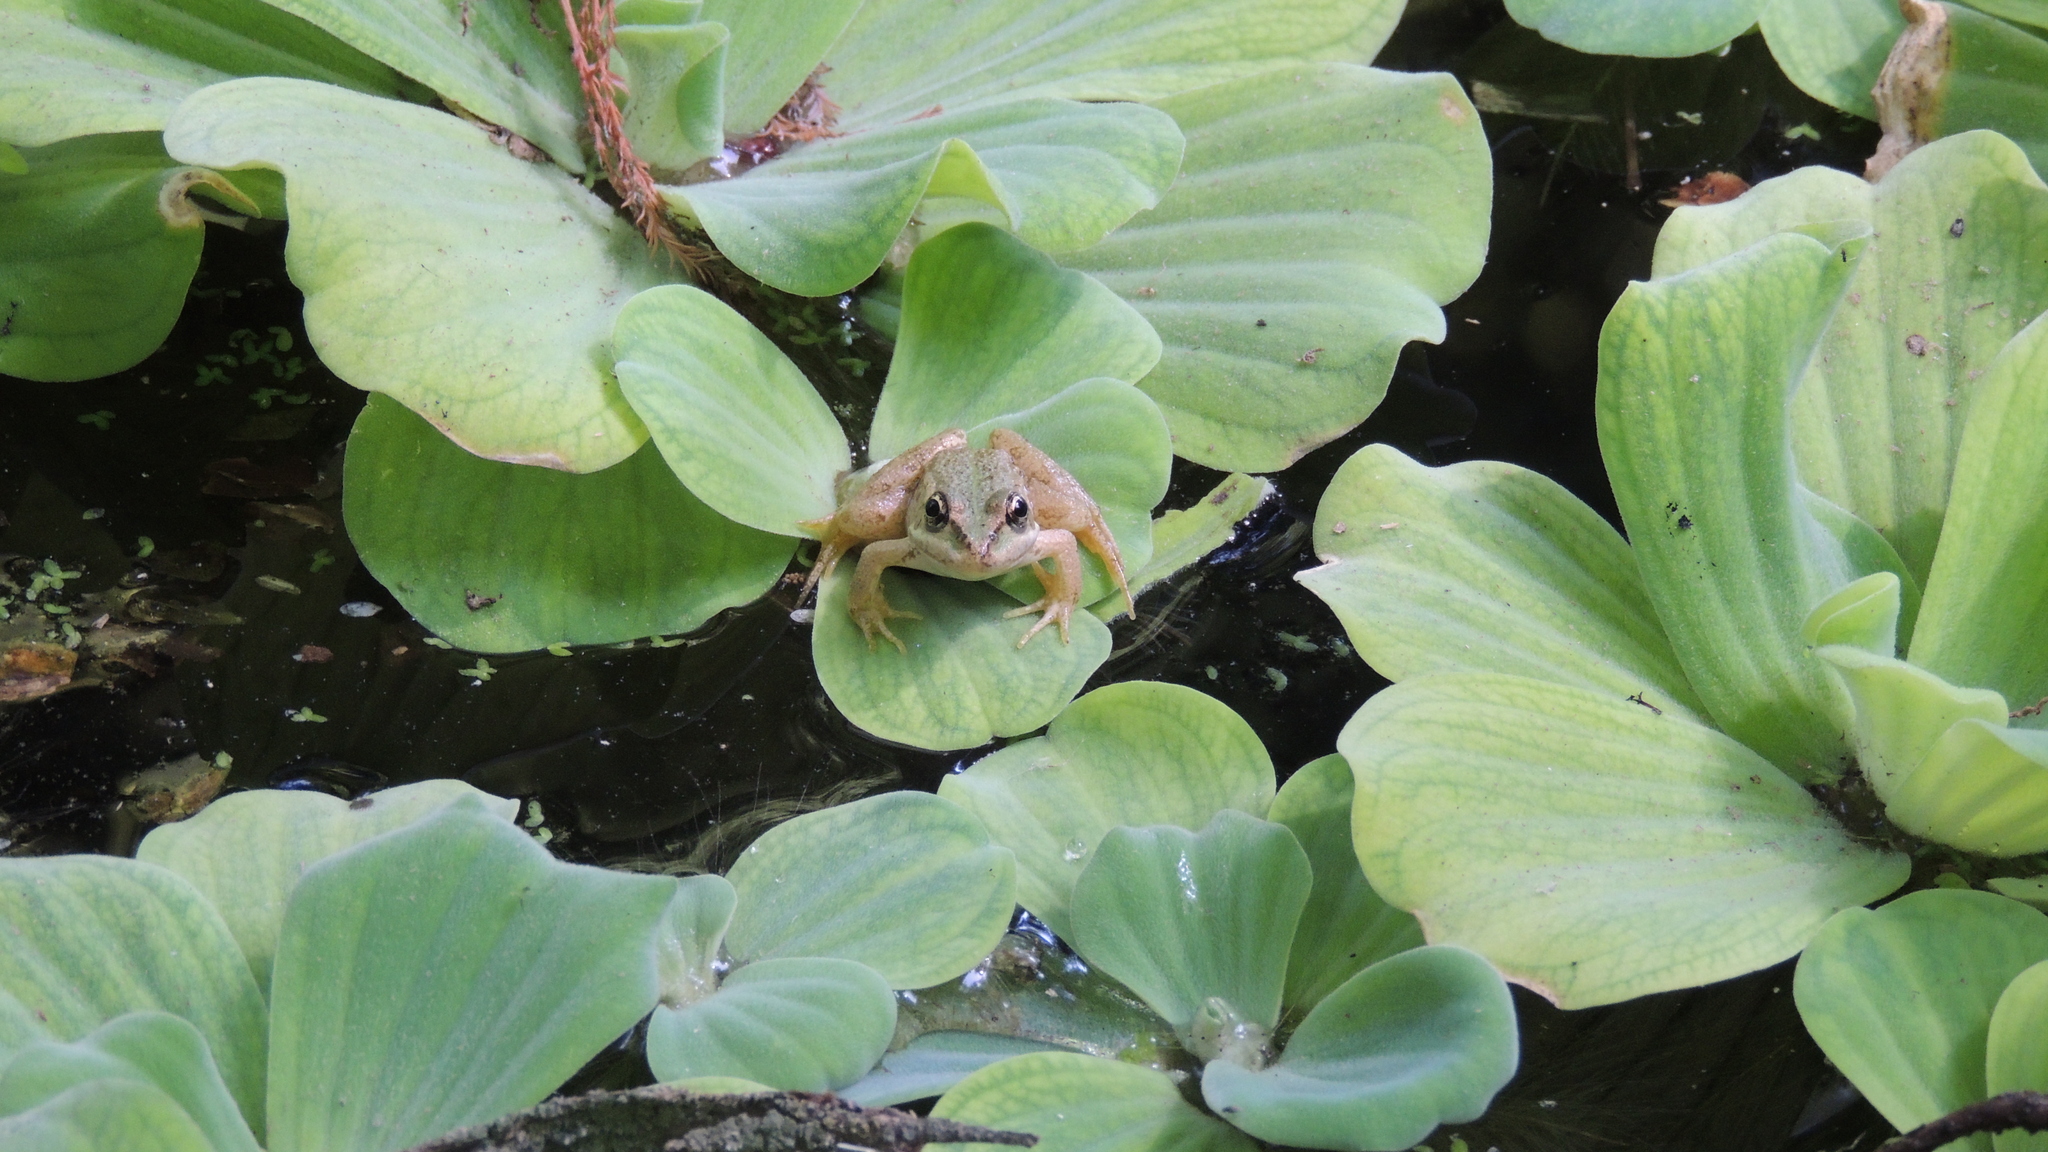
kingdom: Animalia
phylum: Chordata
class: Amphibia
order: Anura
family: Ranidae
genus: Pelophylax
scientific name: Pelophylax ridibundus
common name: Marsh frog
